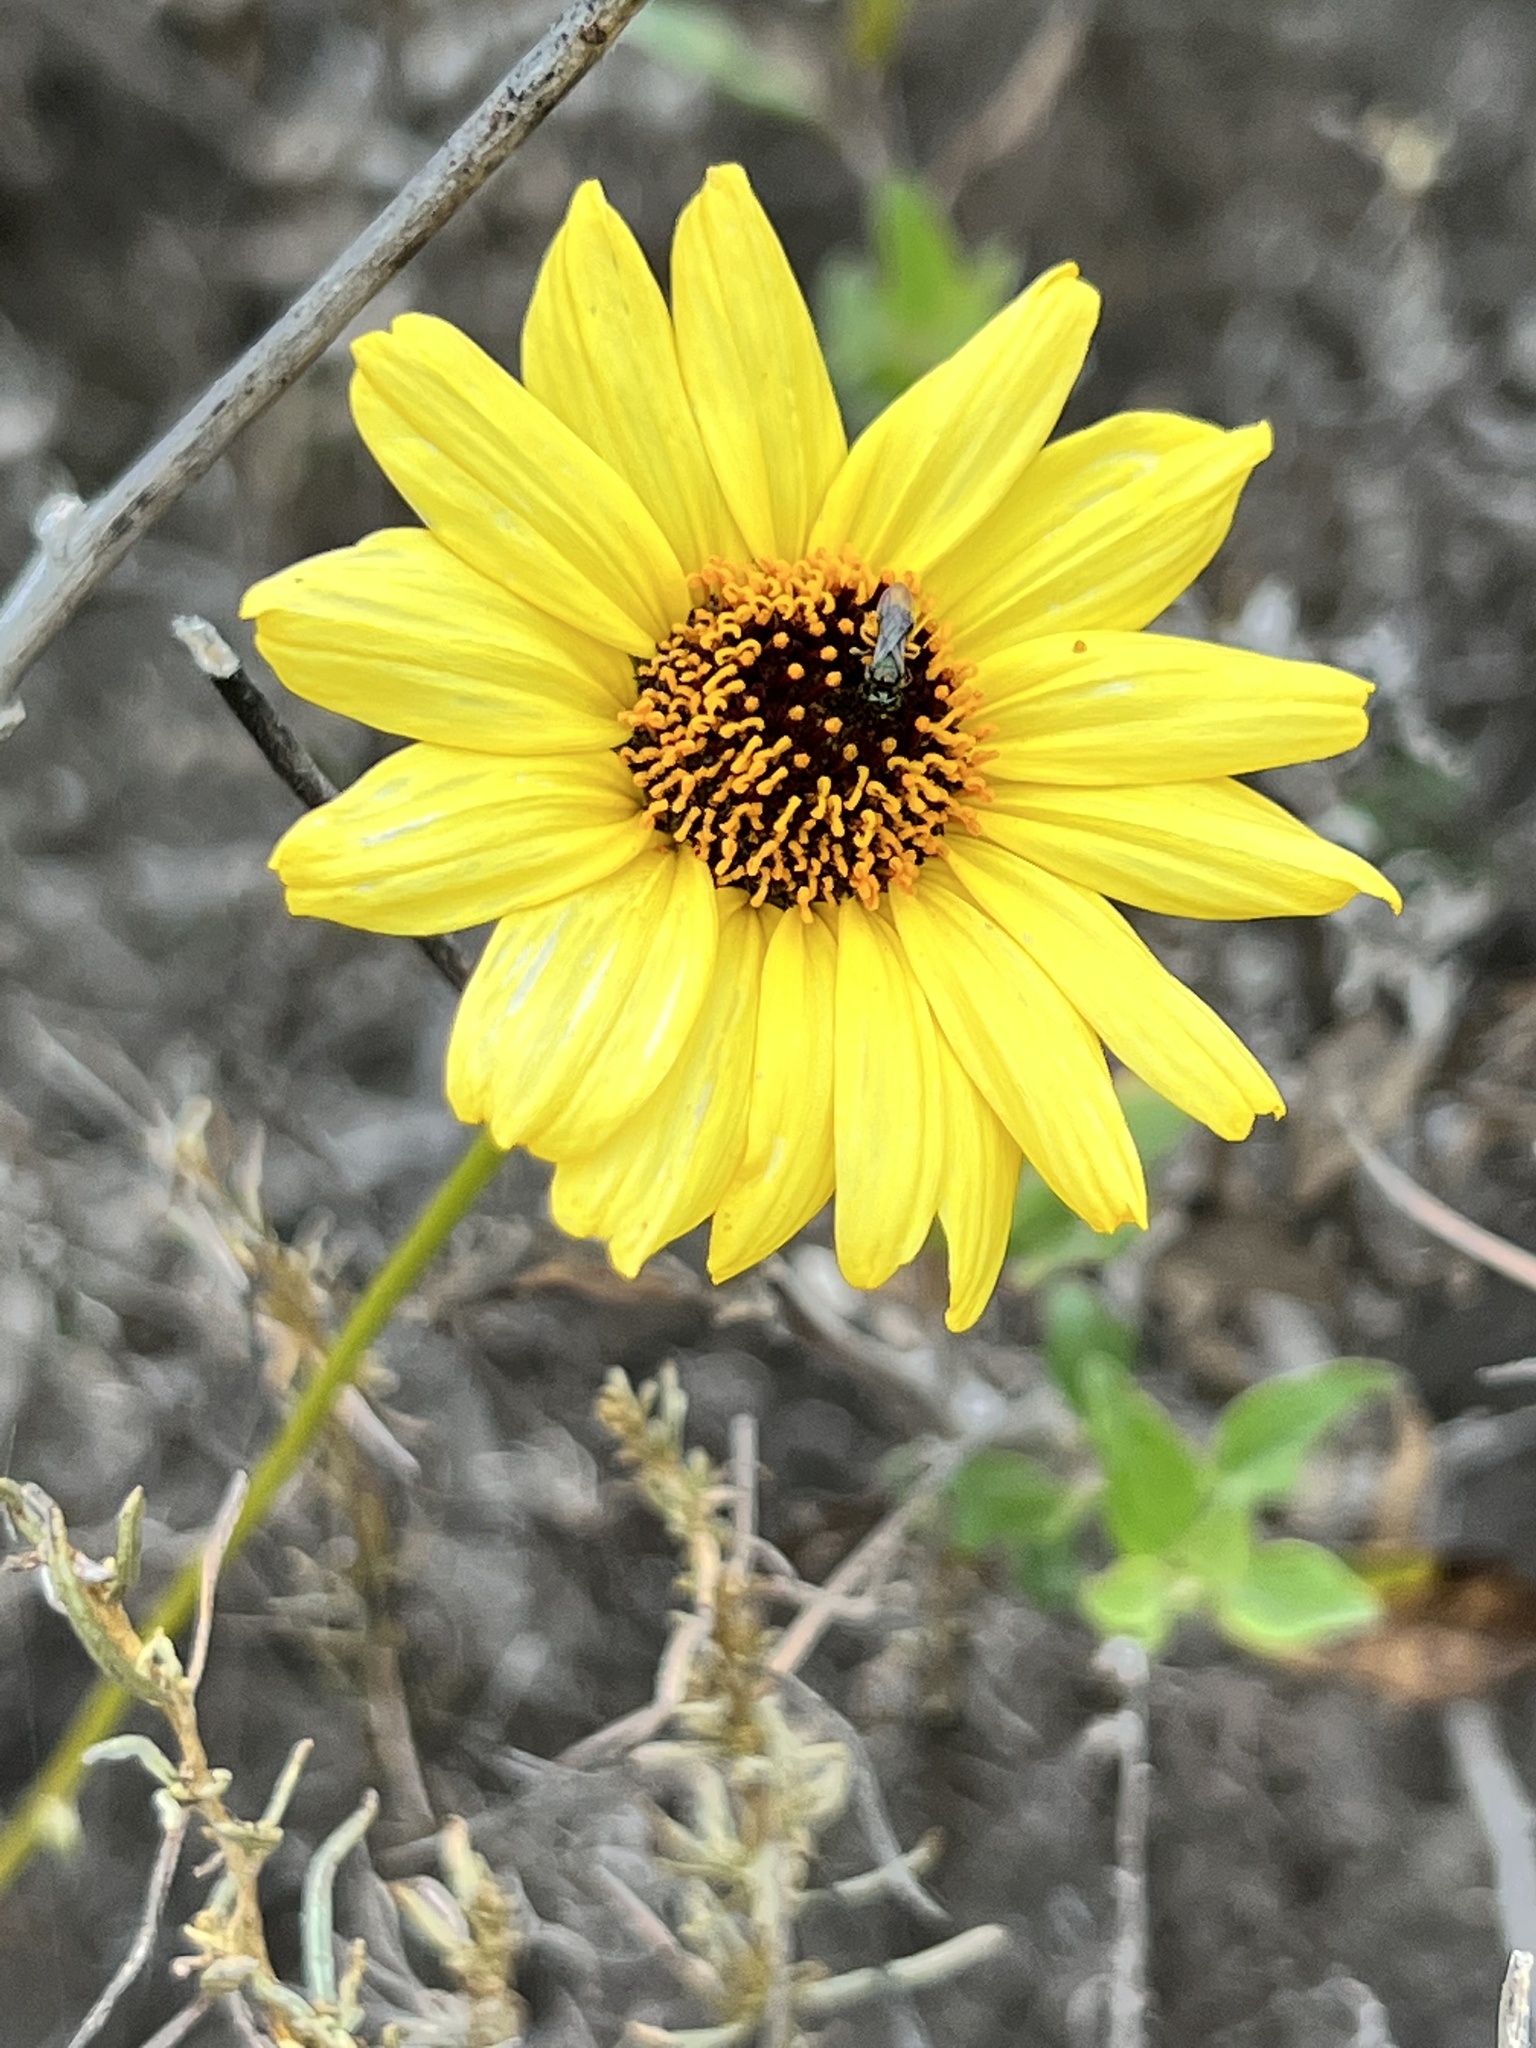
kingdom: Plantae
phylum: Tracheophyta
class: Magnoliopsida
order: Asterales
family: Asteraceae
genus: Encelia
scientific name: Encelia californica
